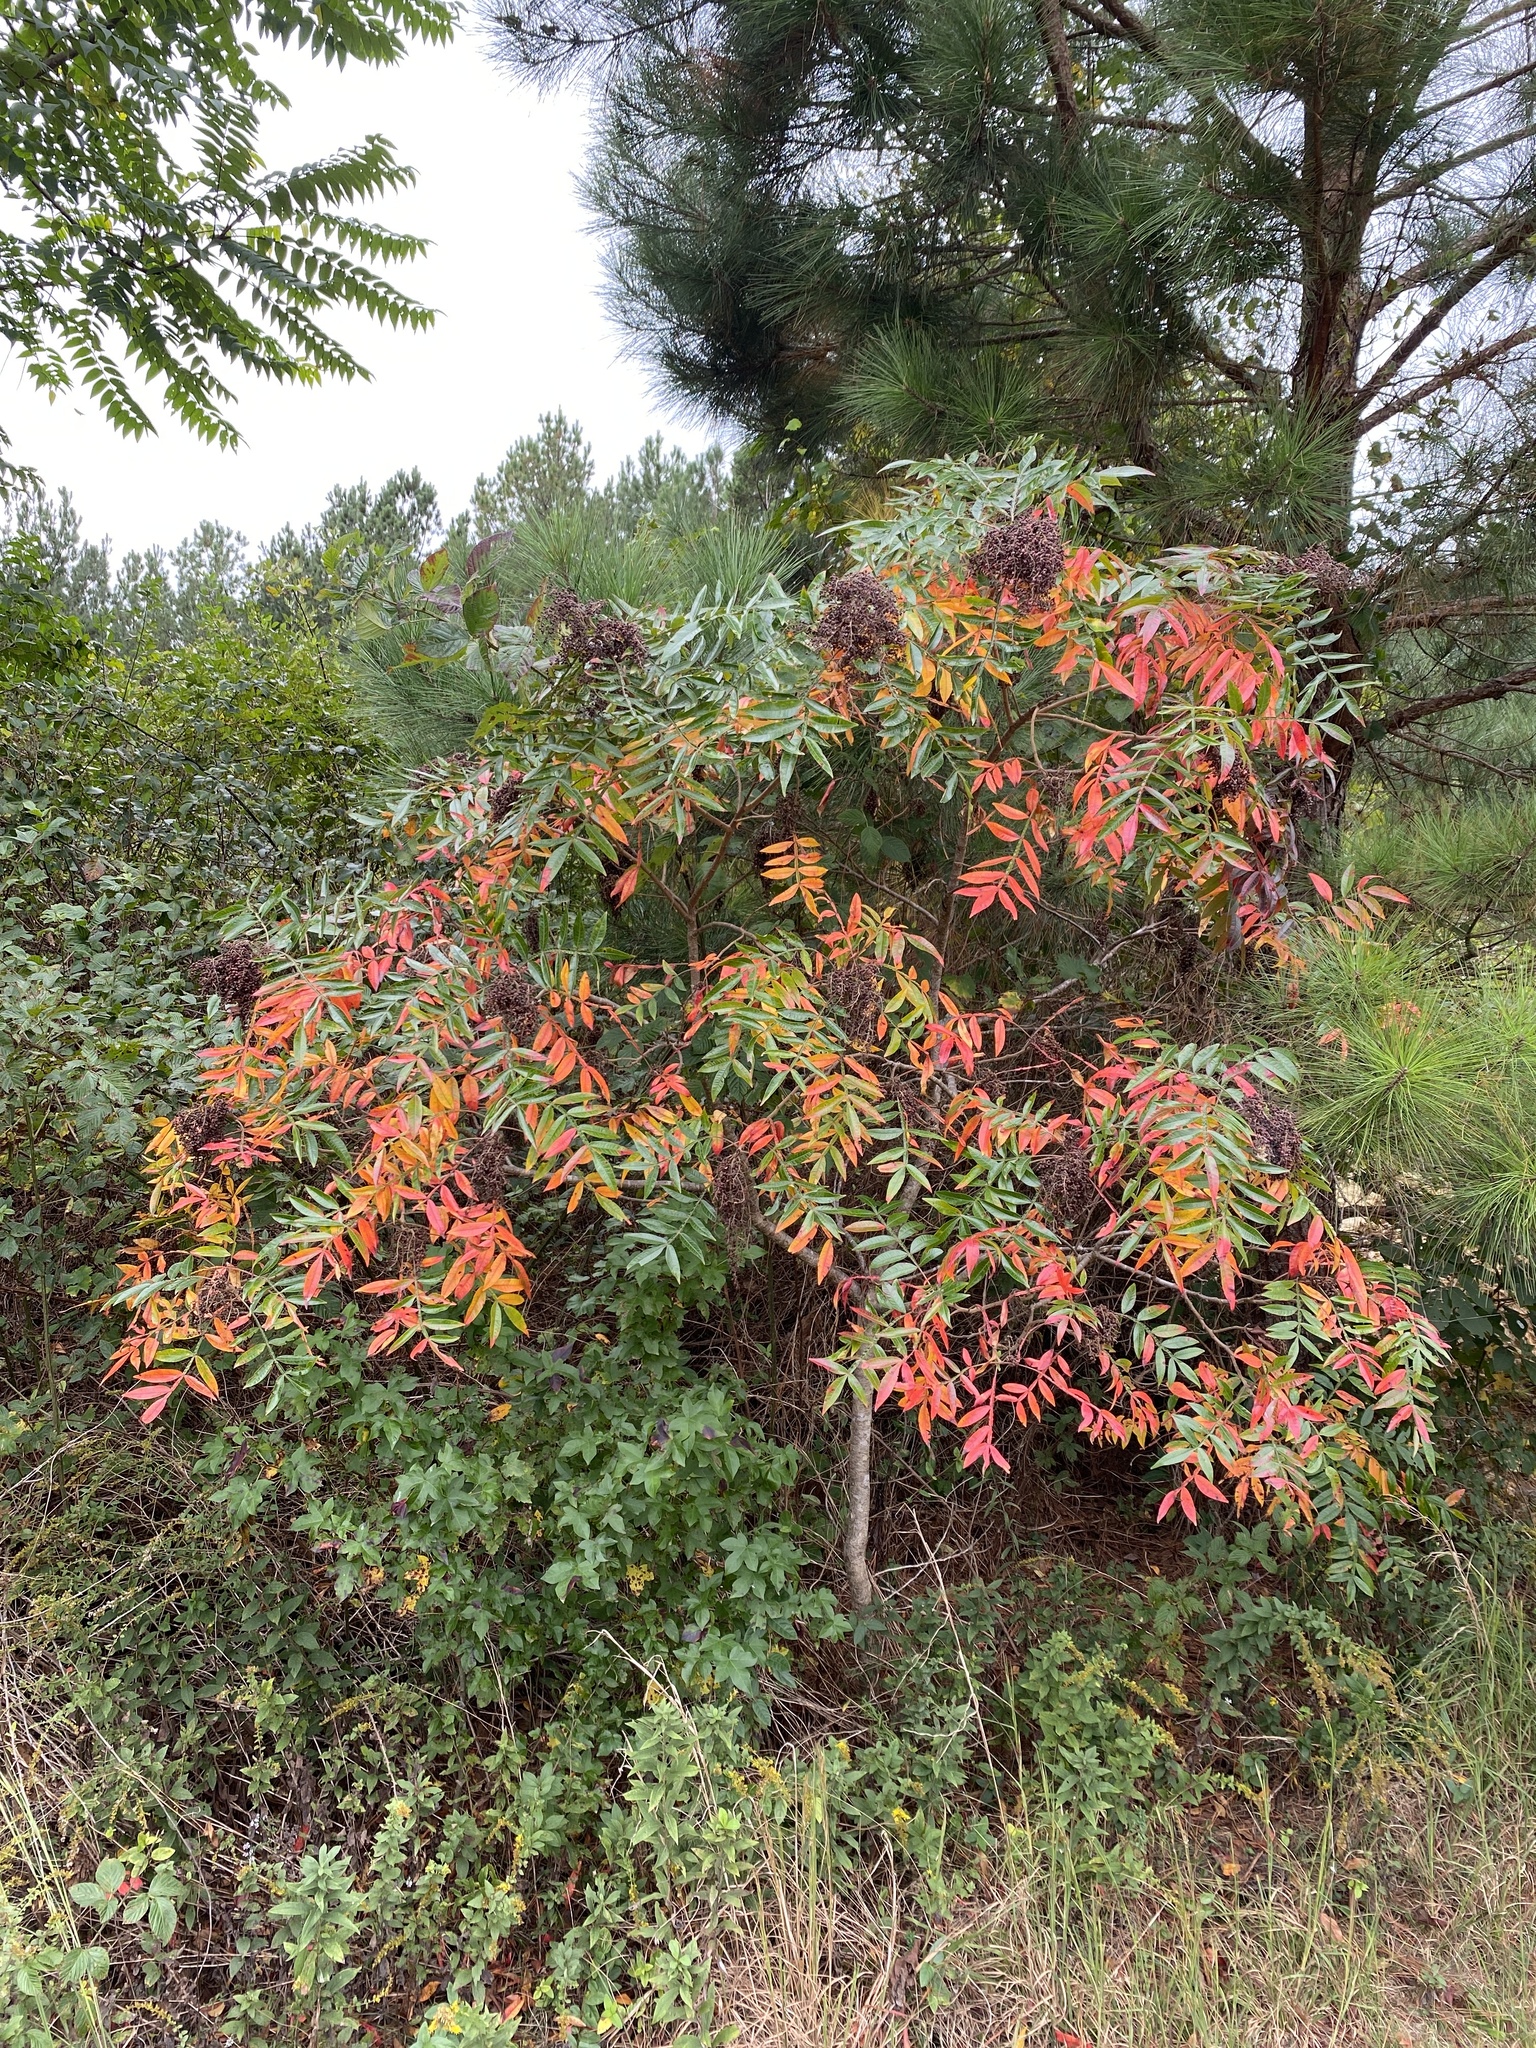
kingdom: Plantae
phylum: Tracheophyta
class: Magnoliopsida
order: Sapindales
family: Anacardiaceae
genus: Rhus
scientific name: Rhus copallina
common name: Shining sumac
